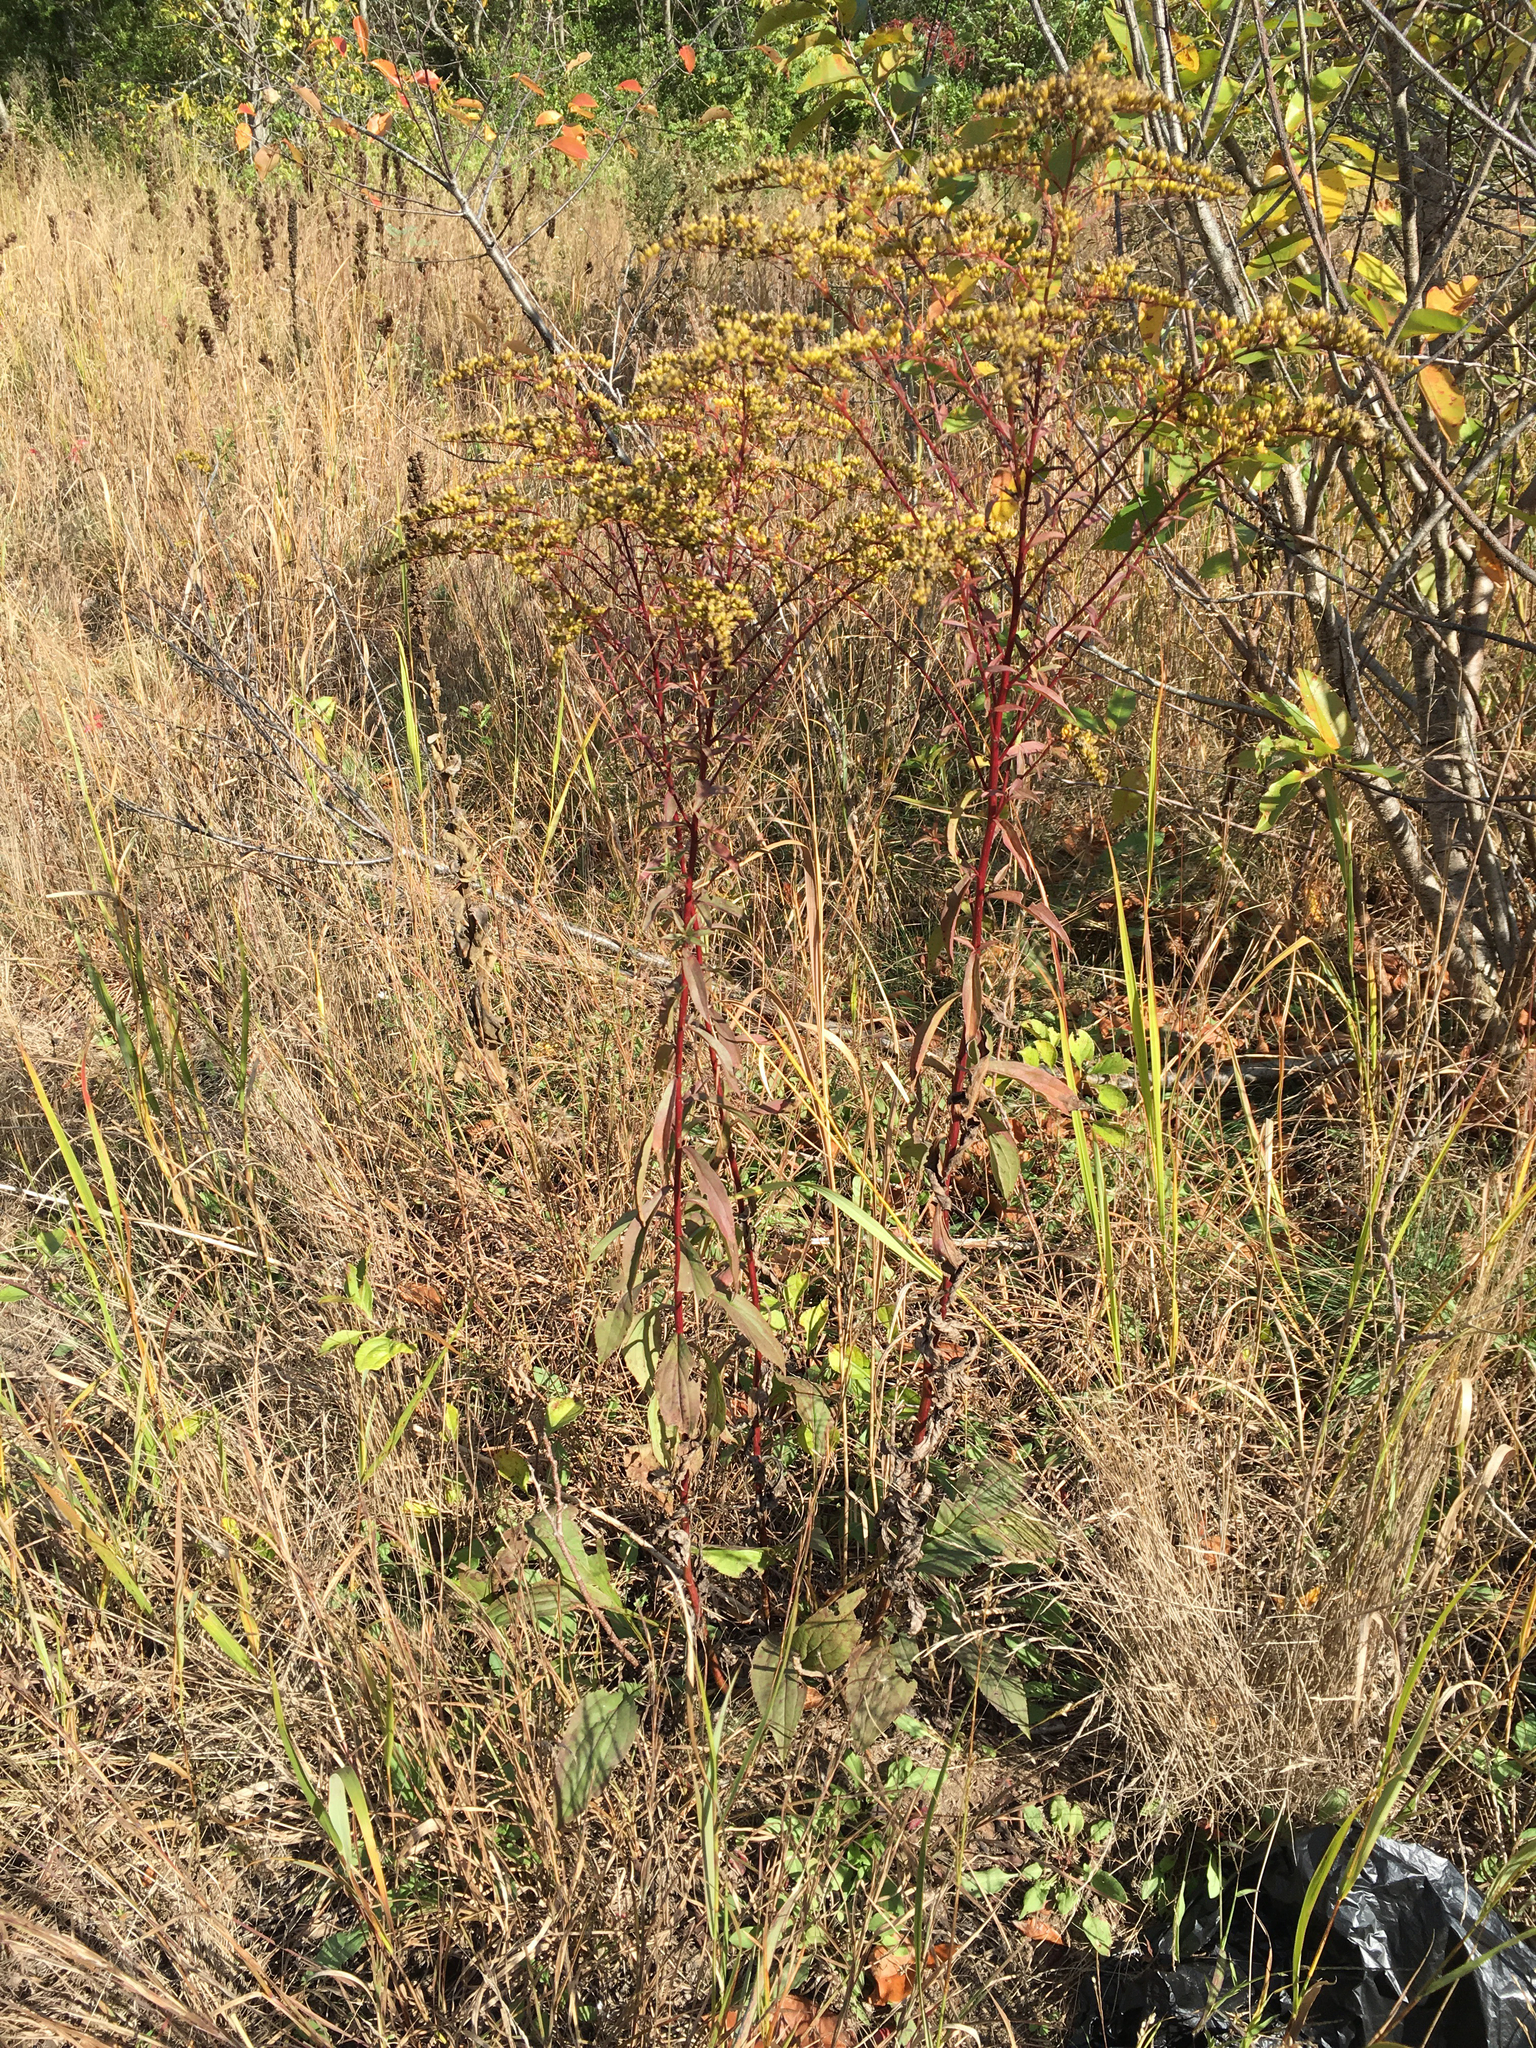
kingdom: Plantae
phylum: Tracheophyta
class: Magnoliopsida
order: Asterales
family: Asteraceae
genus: Solidago
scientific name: Solidago juncea
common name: Early goldenrod
